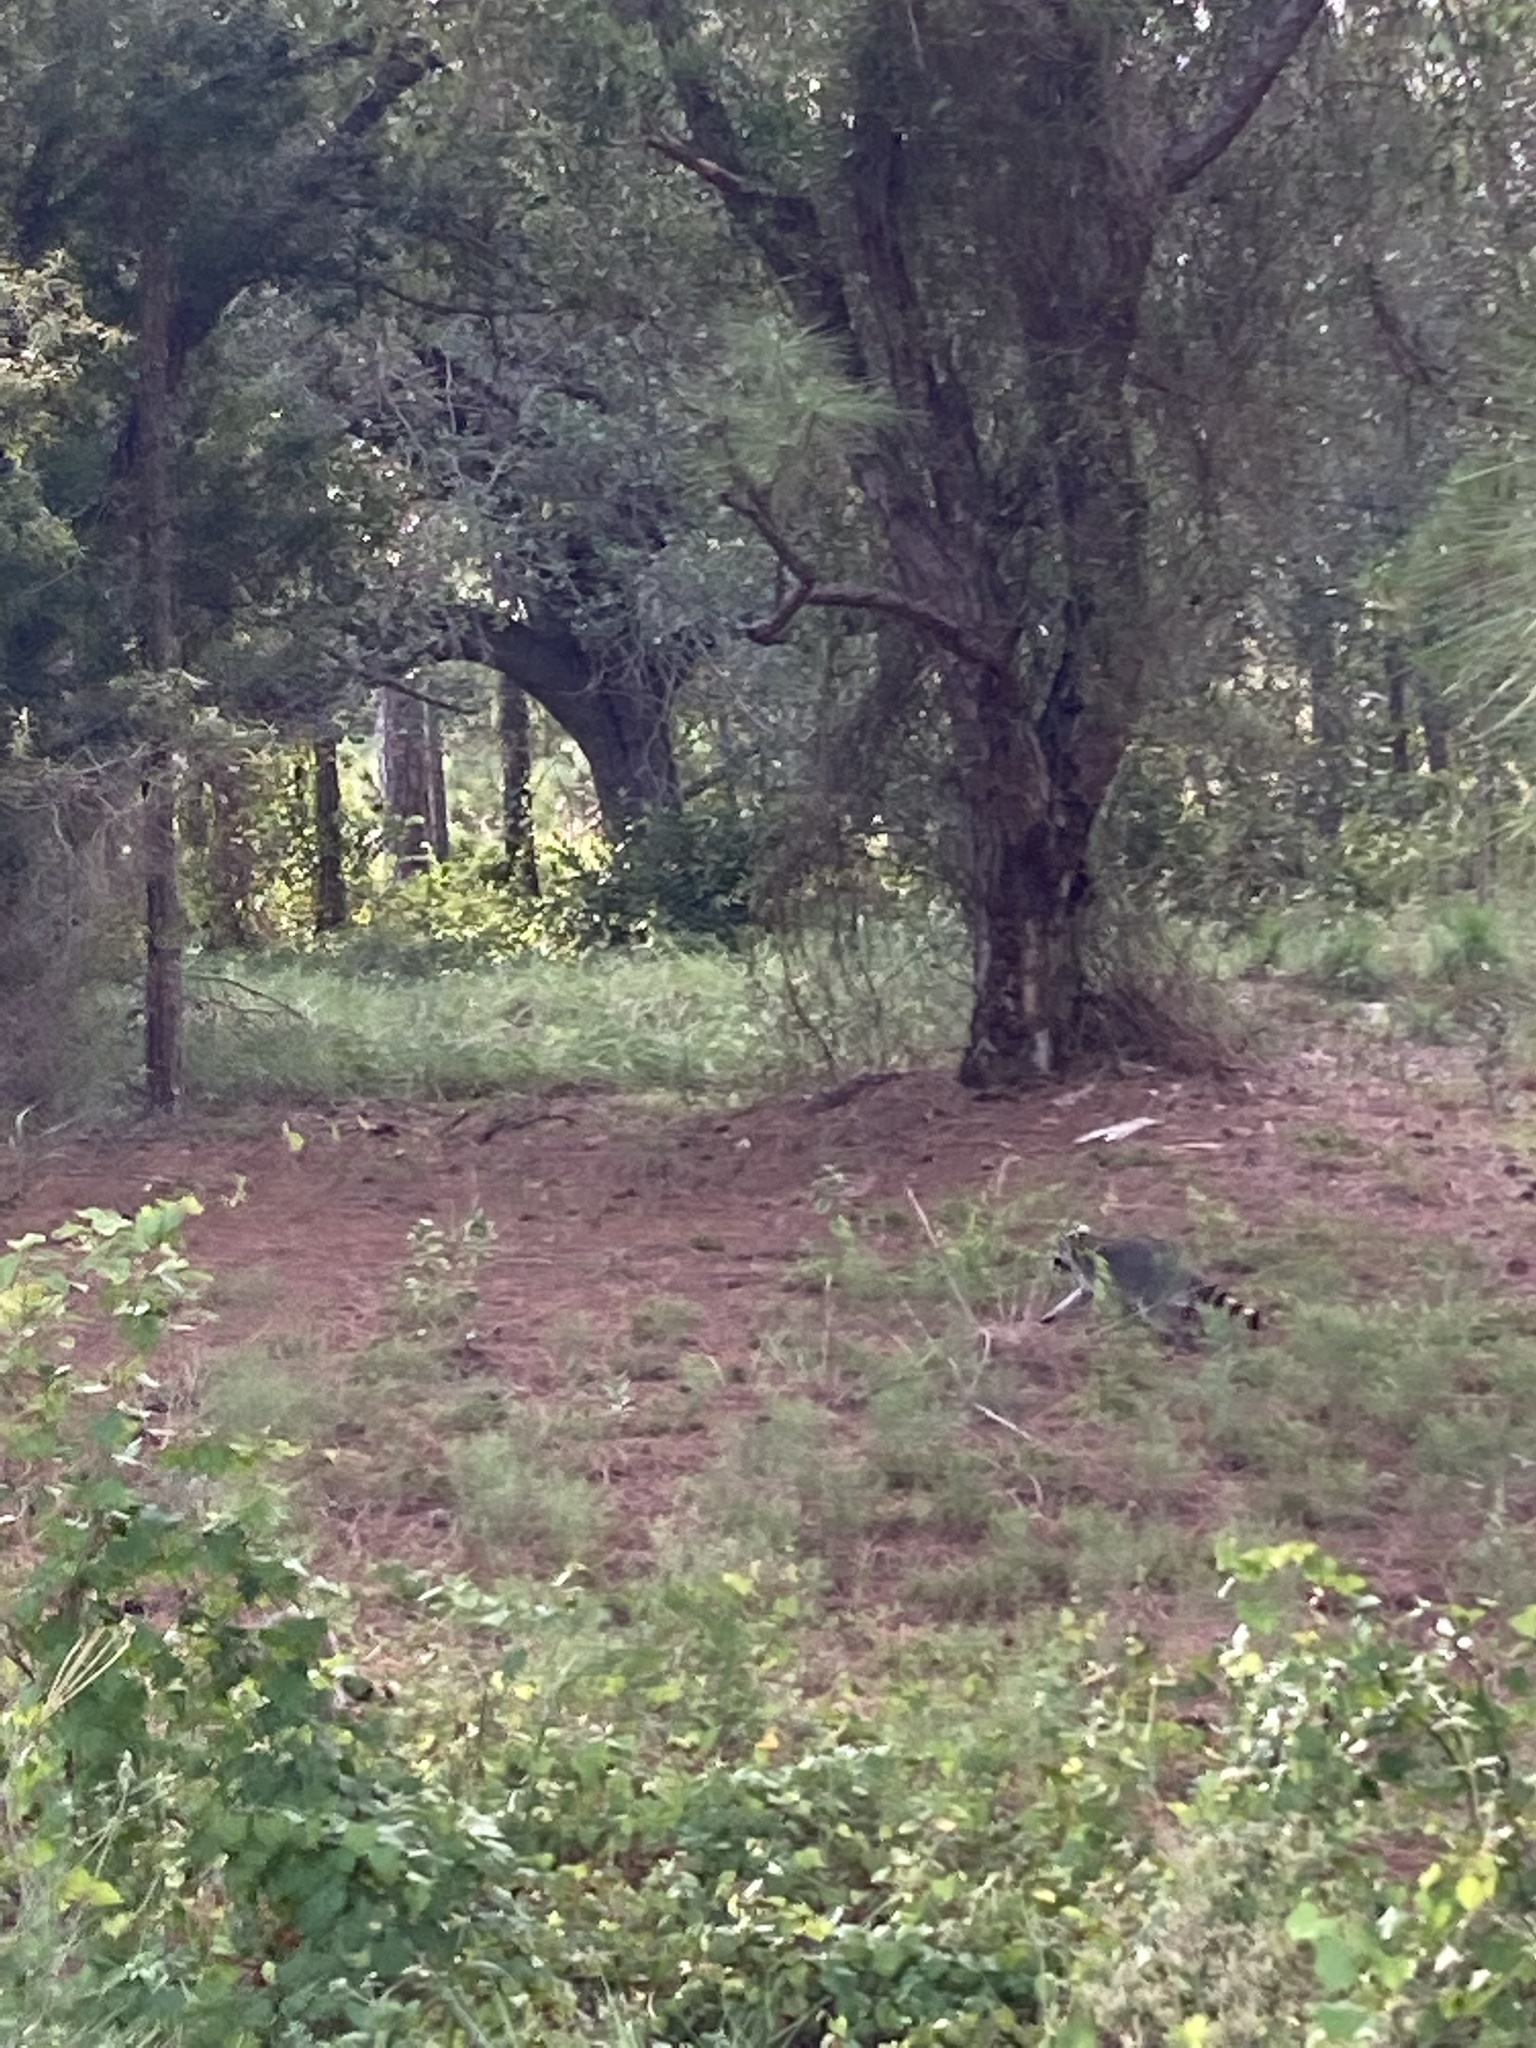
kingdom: Animalia
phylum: Chordata
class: Mammalia
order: Carnivora
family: Procyonidae
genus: Procyon
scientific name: Procyon lotor
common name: Raccoon
